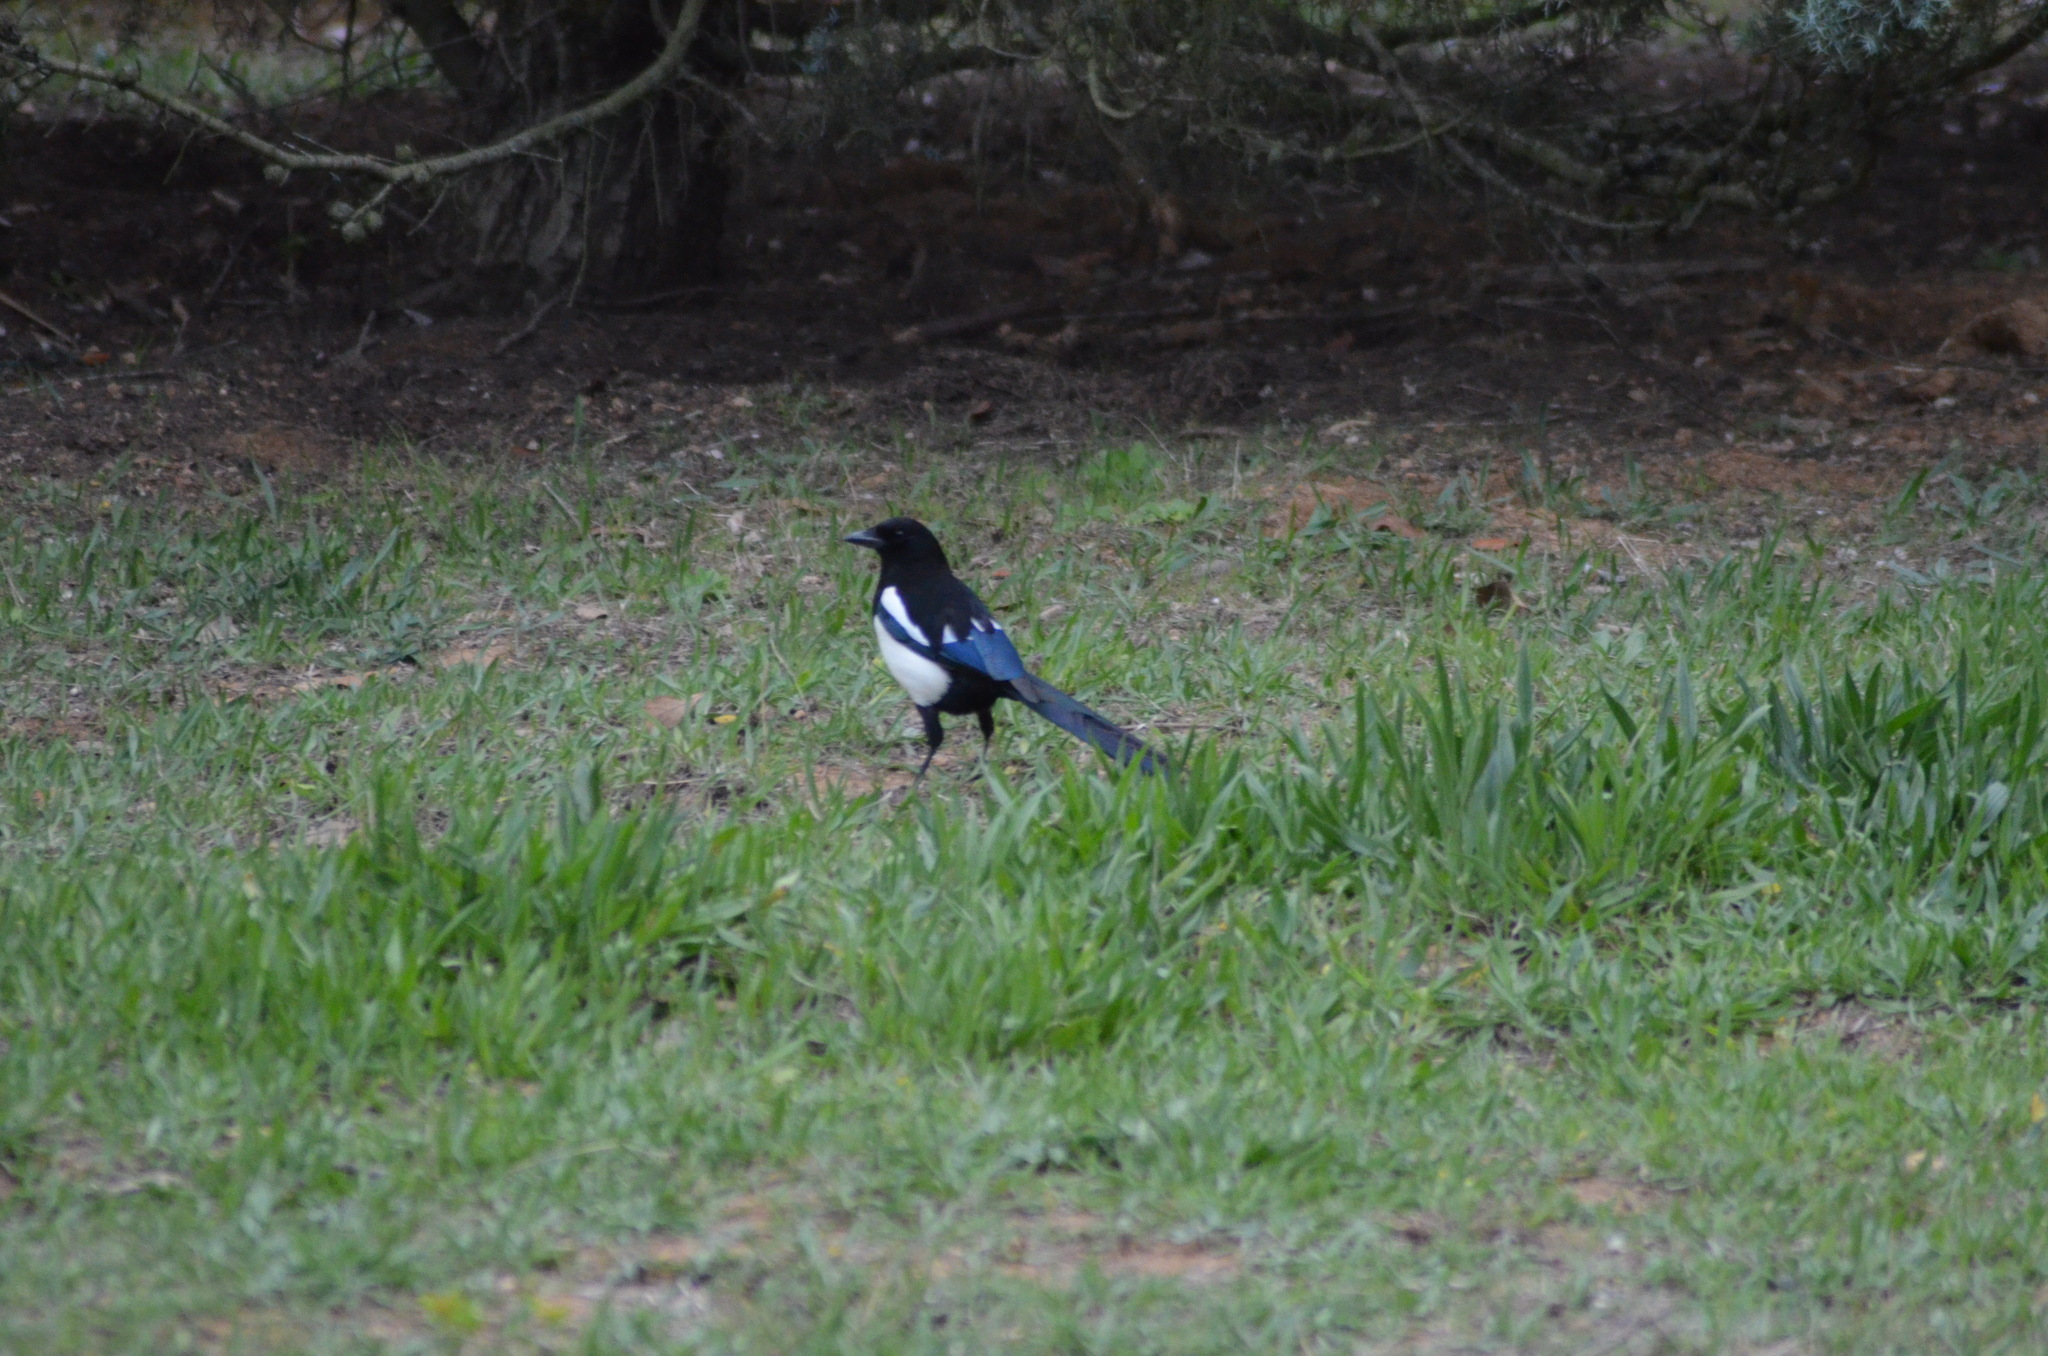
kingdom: Animalia
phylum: Chordata
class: Aves
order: Passeriformes
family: Corvidae
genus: Pica
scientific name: Pica pica
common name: Eurasian magpie
